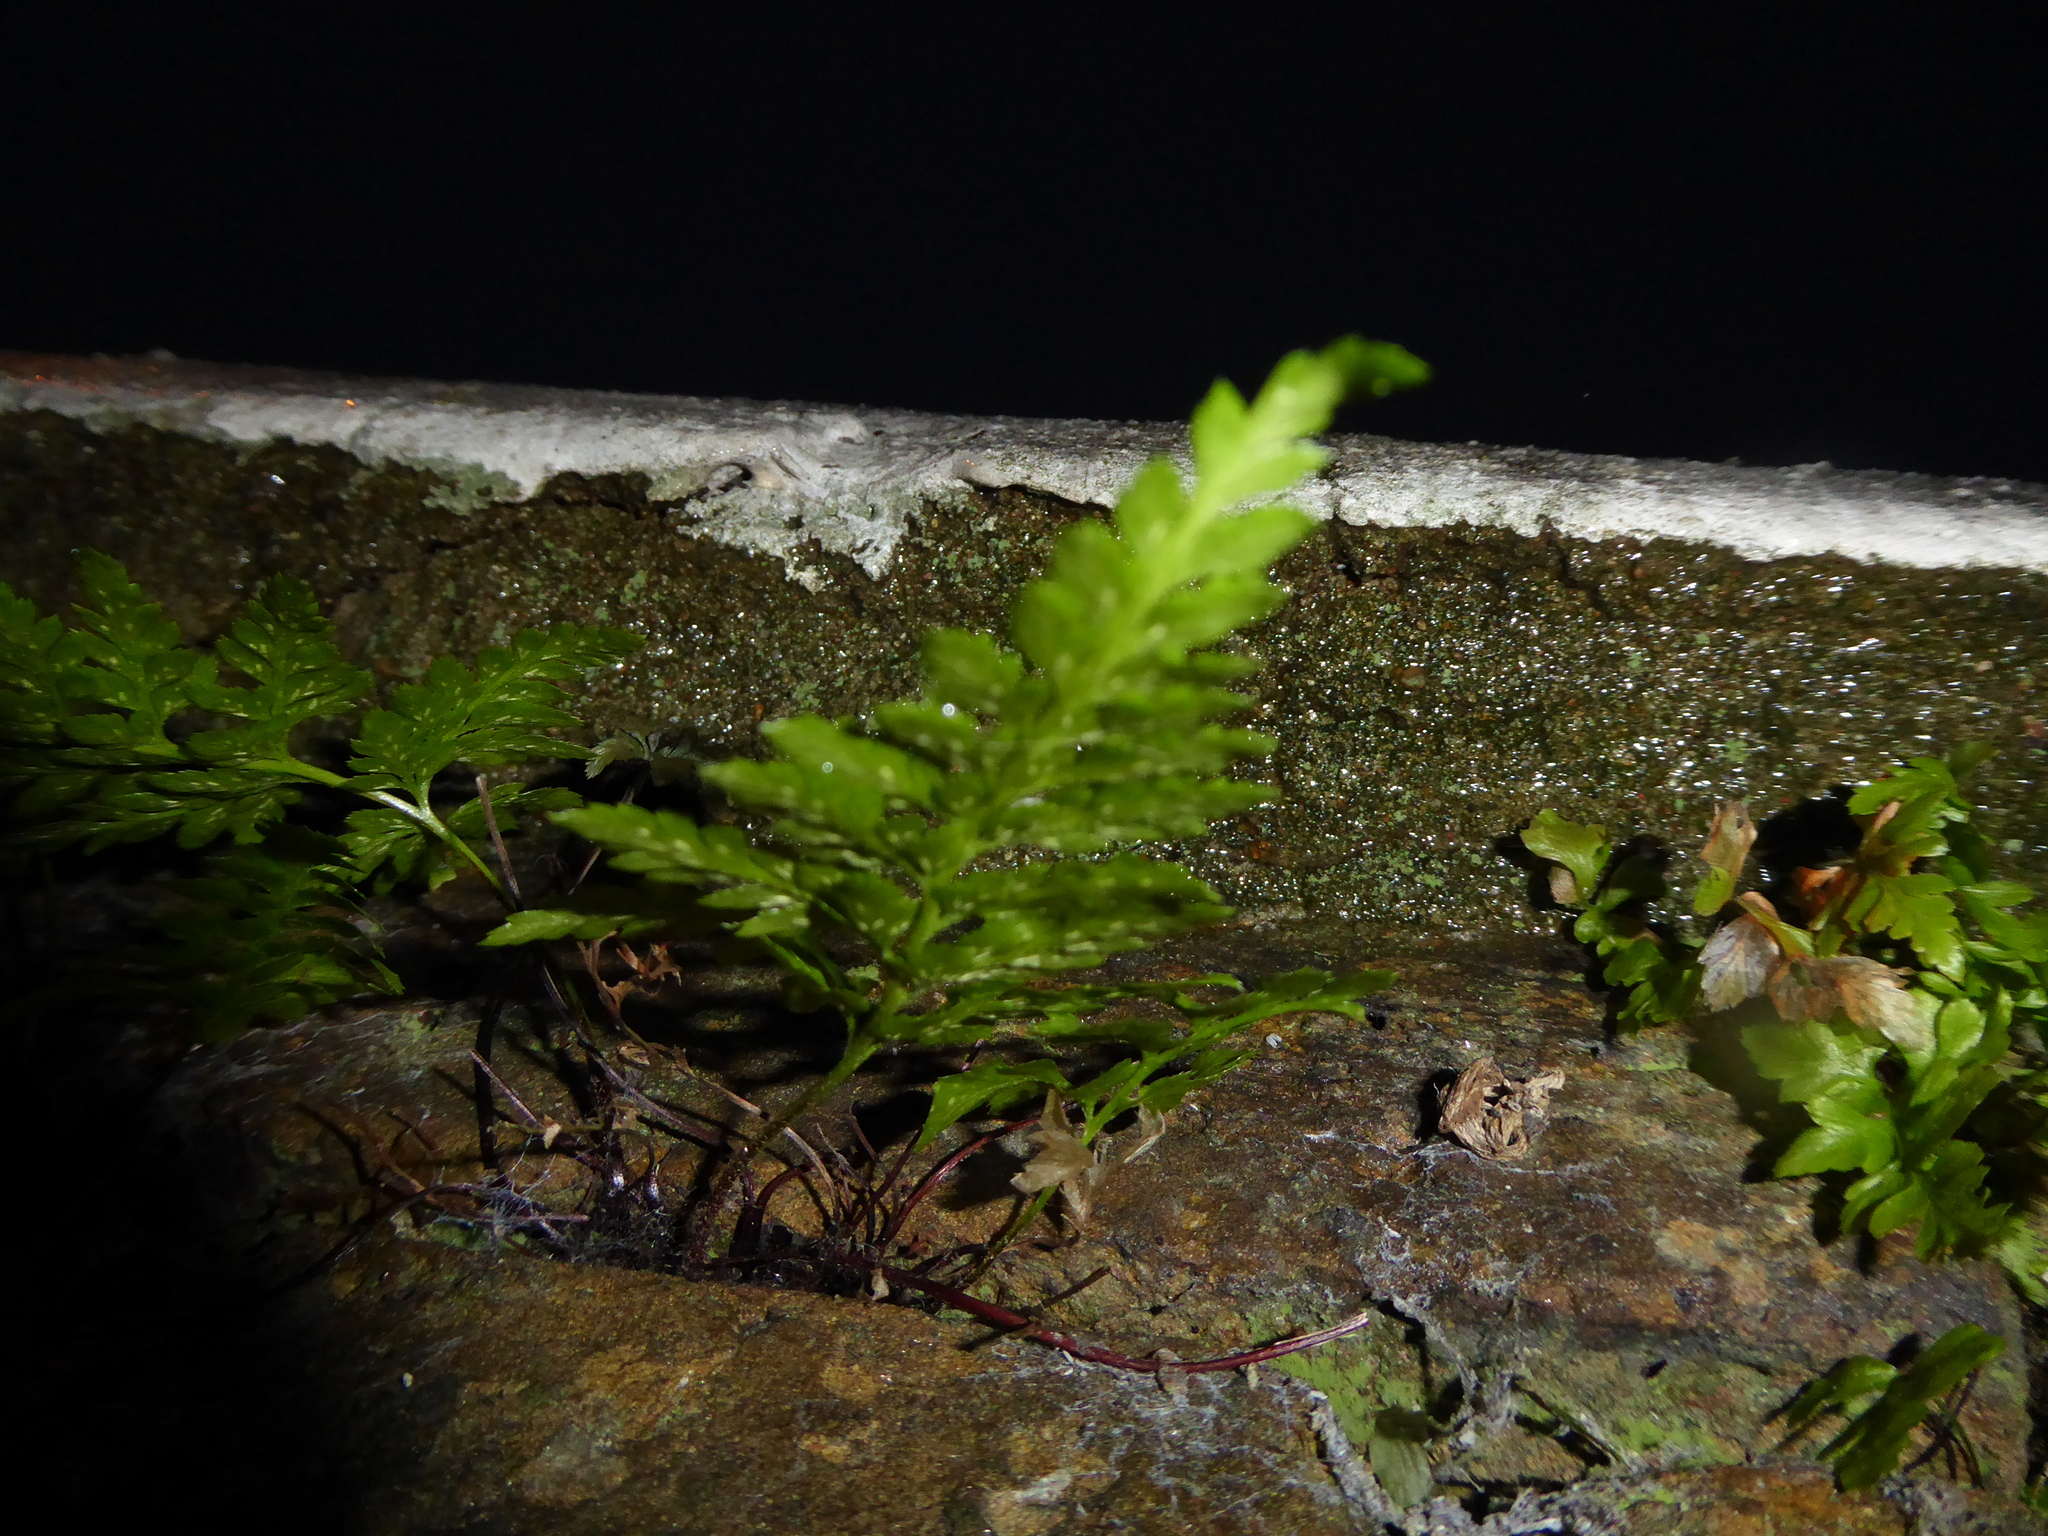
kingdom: Plantae
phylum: Tracheophyta
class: Polypodiopsida
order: Polypodiales
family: Aspleniaceae
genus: Asplenium
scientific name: Asplenium adiantum-nigrum
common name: Black spleenwort
